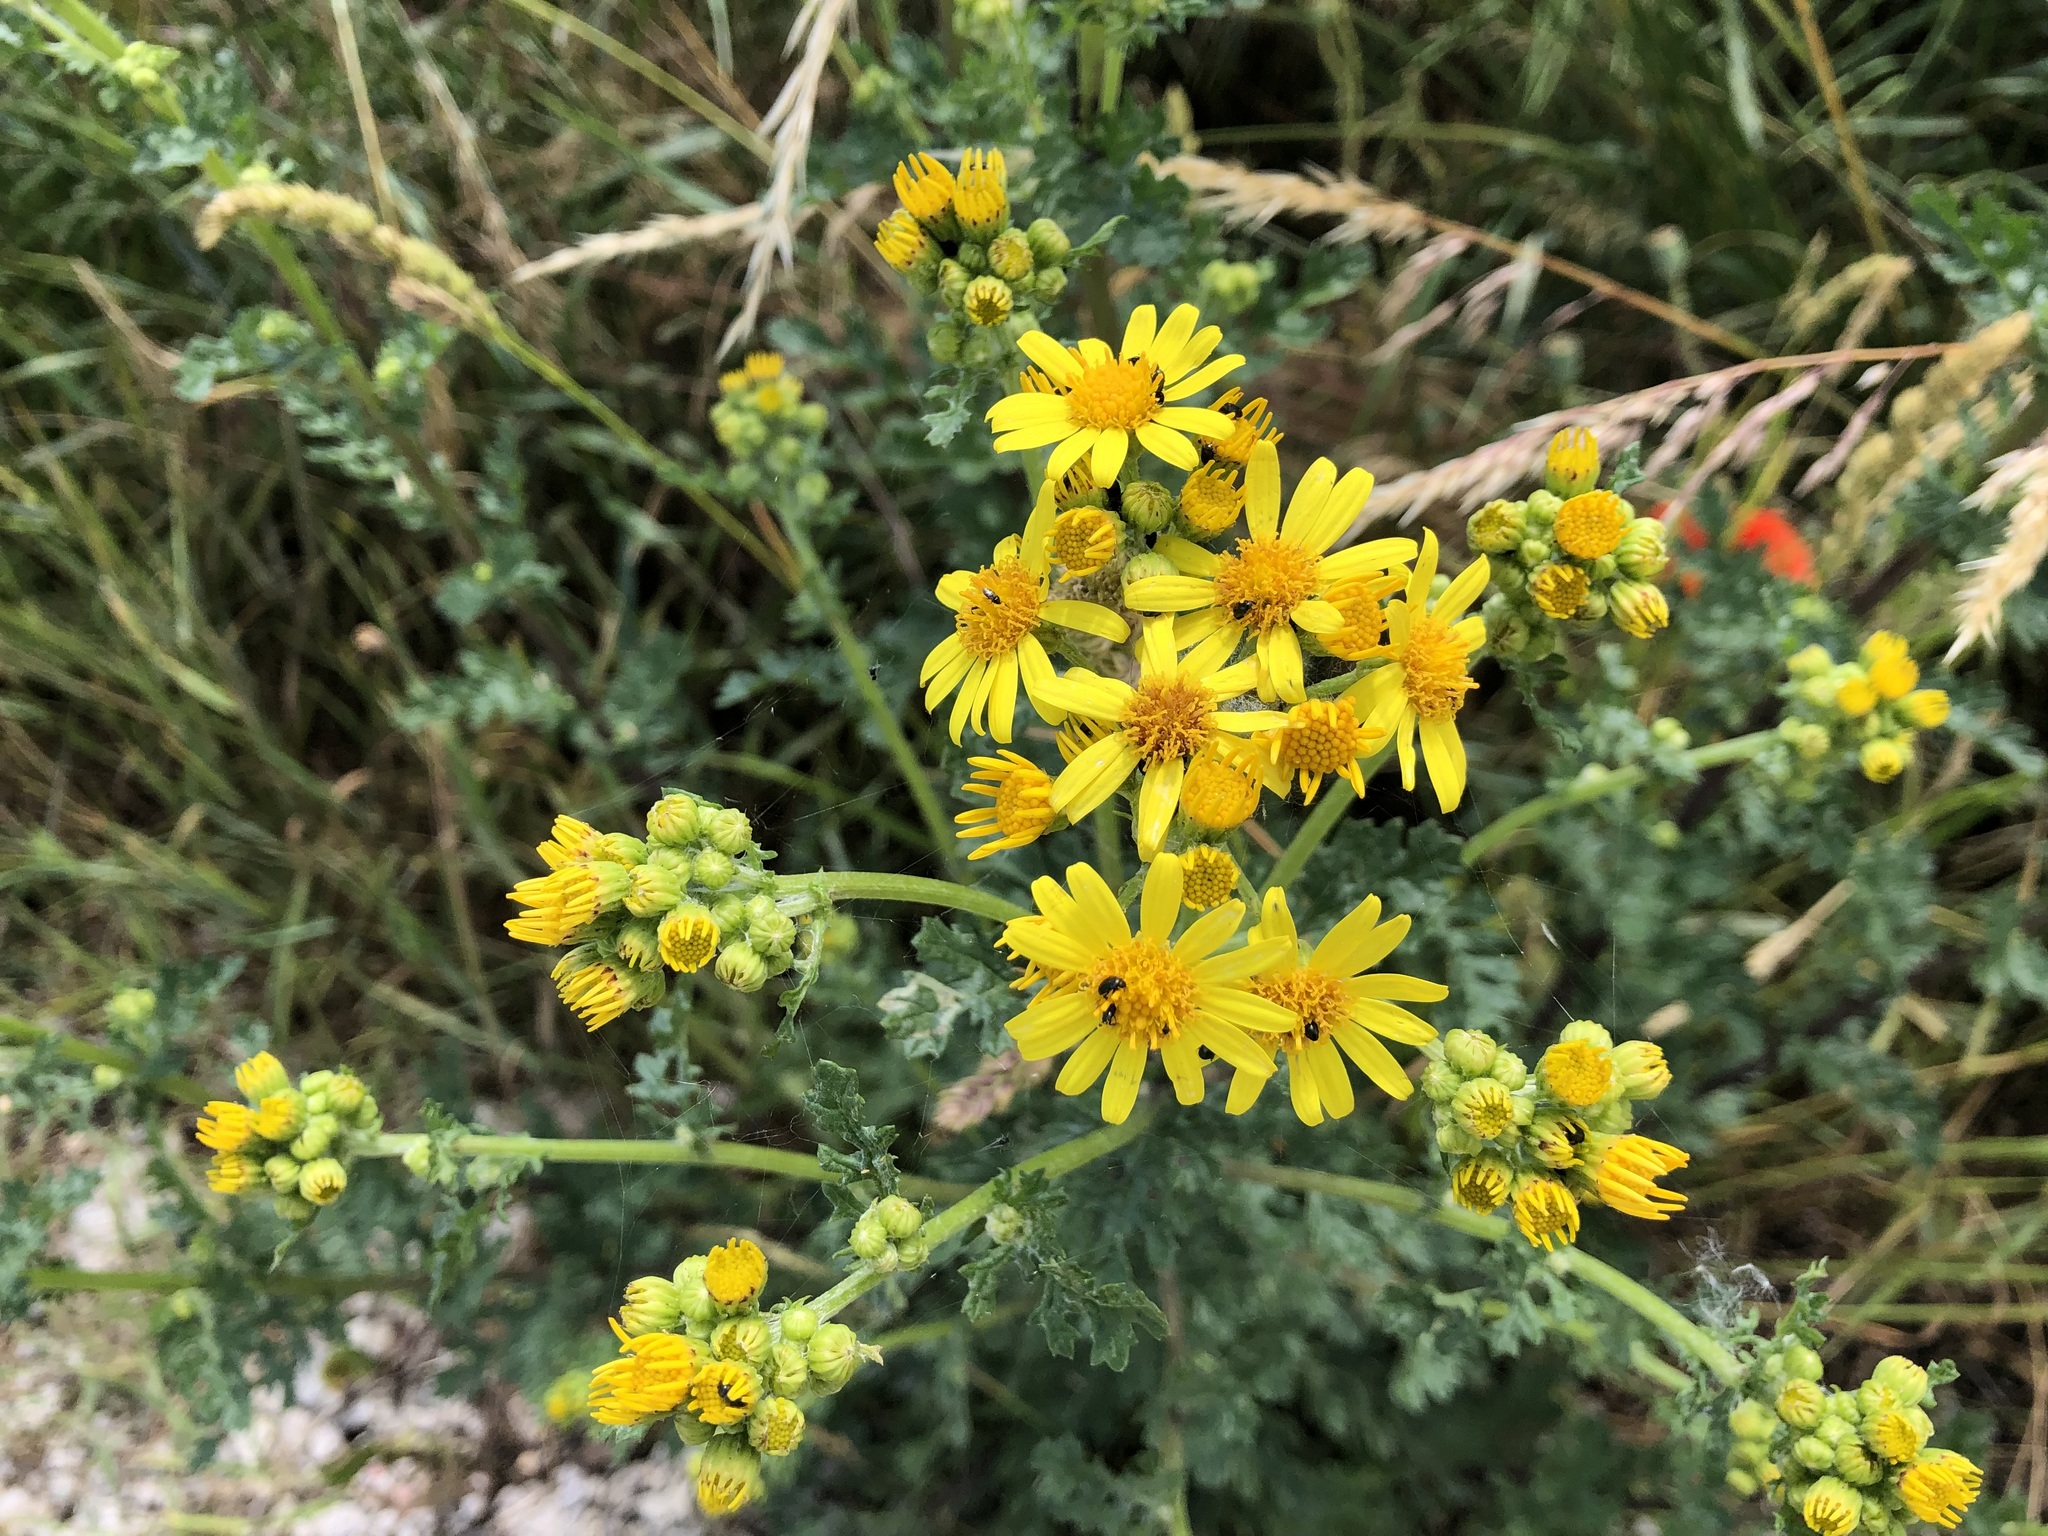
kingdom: Plantae
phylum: Tracheophyta
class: Magnoliopsida
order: Asterales
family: Asteraceae
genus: Jacobaea
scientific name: Jacobaea vulgaris
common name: Stinking willie
